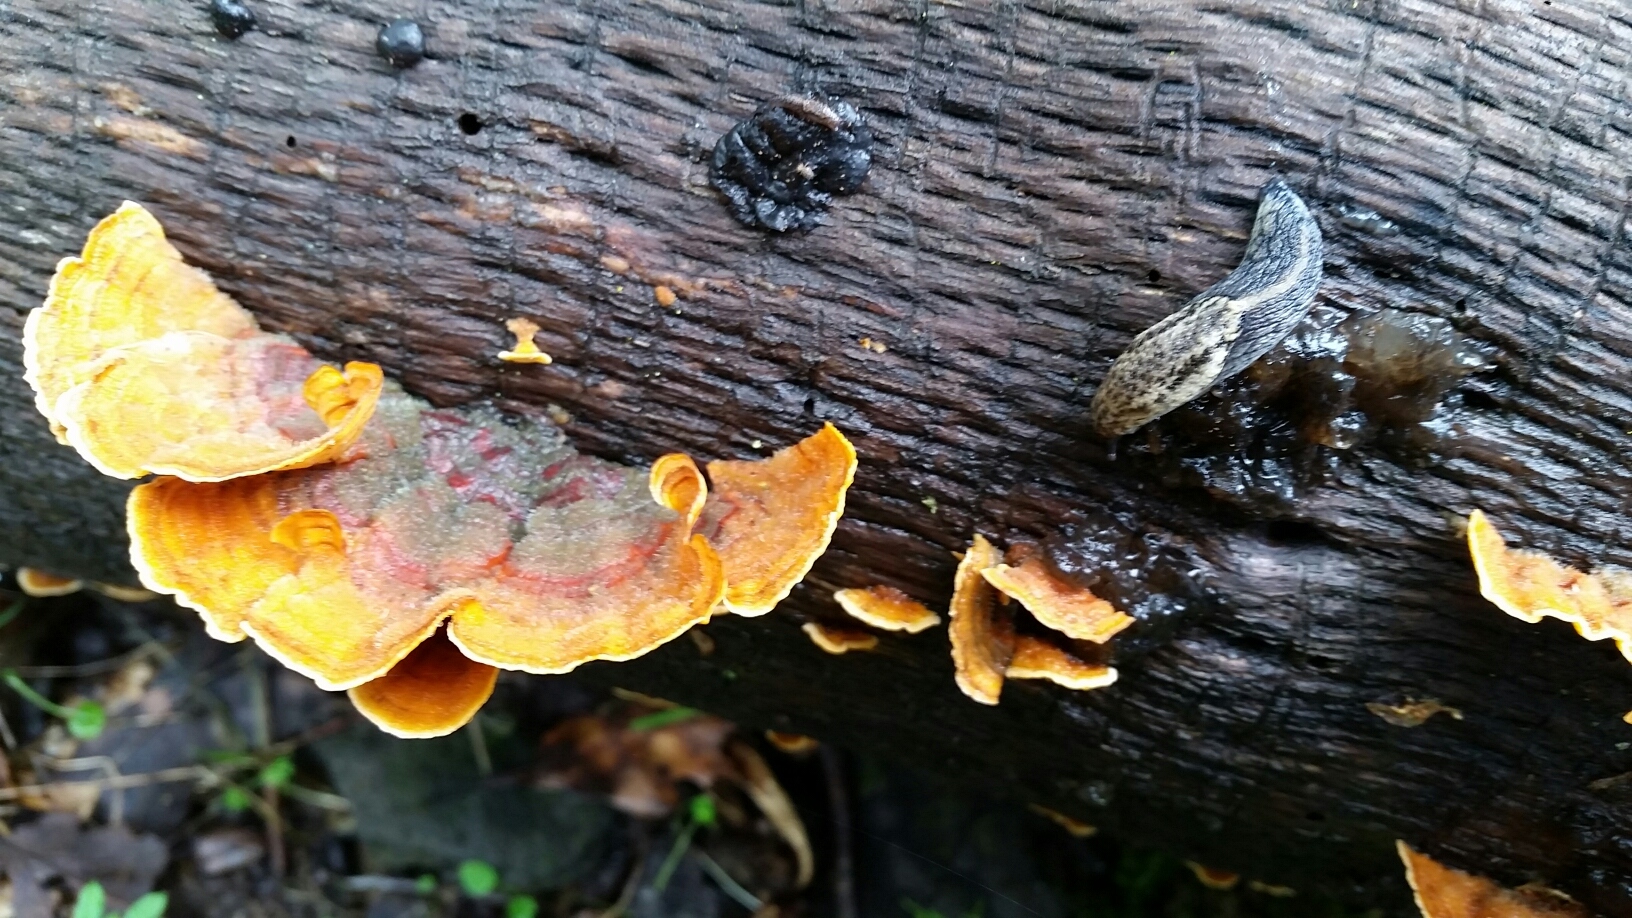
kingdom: Animalia
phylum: Mollusca
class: Gastropoda
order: Stylommatophora
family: Ariolimacidae
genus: Prophysaon
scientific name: Prophysaon andersonii
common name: Reticulate taildropper
